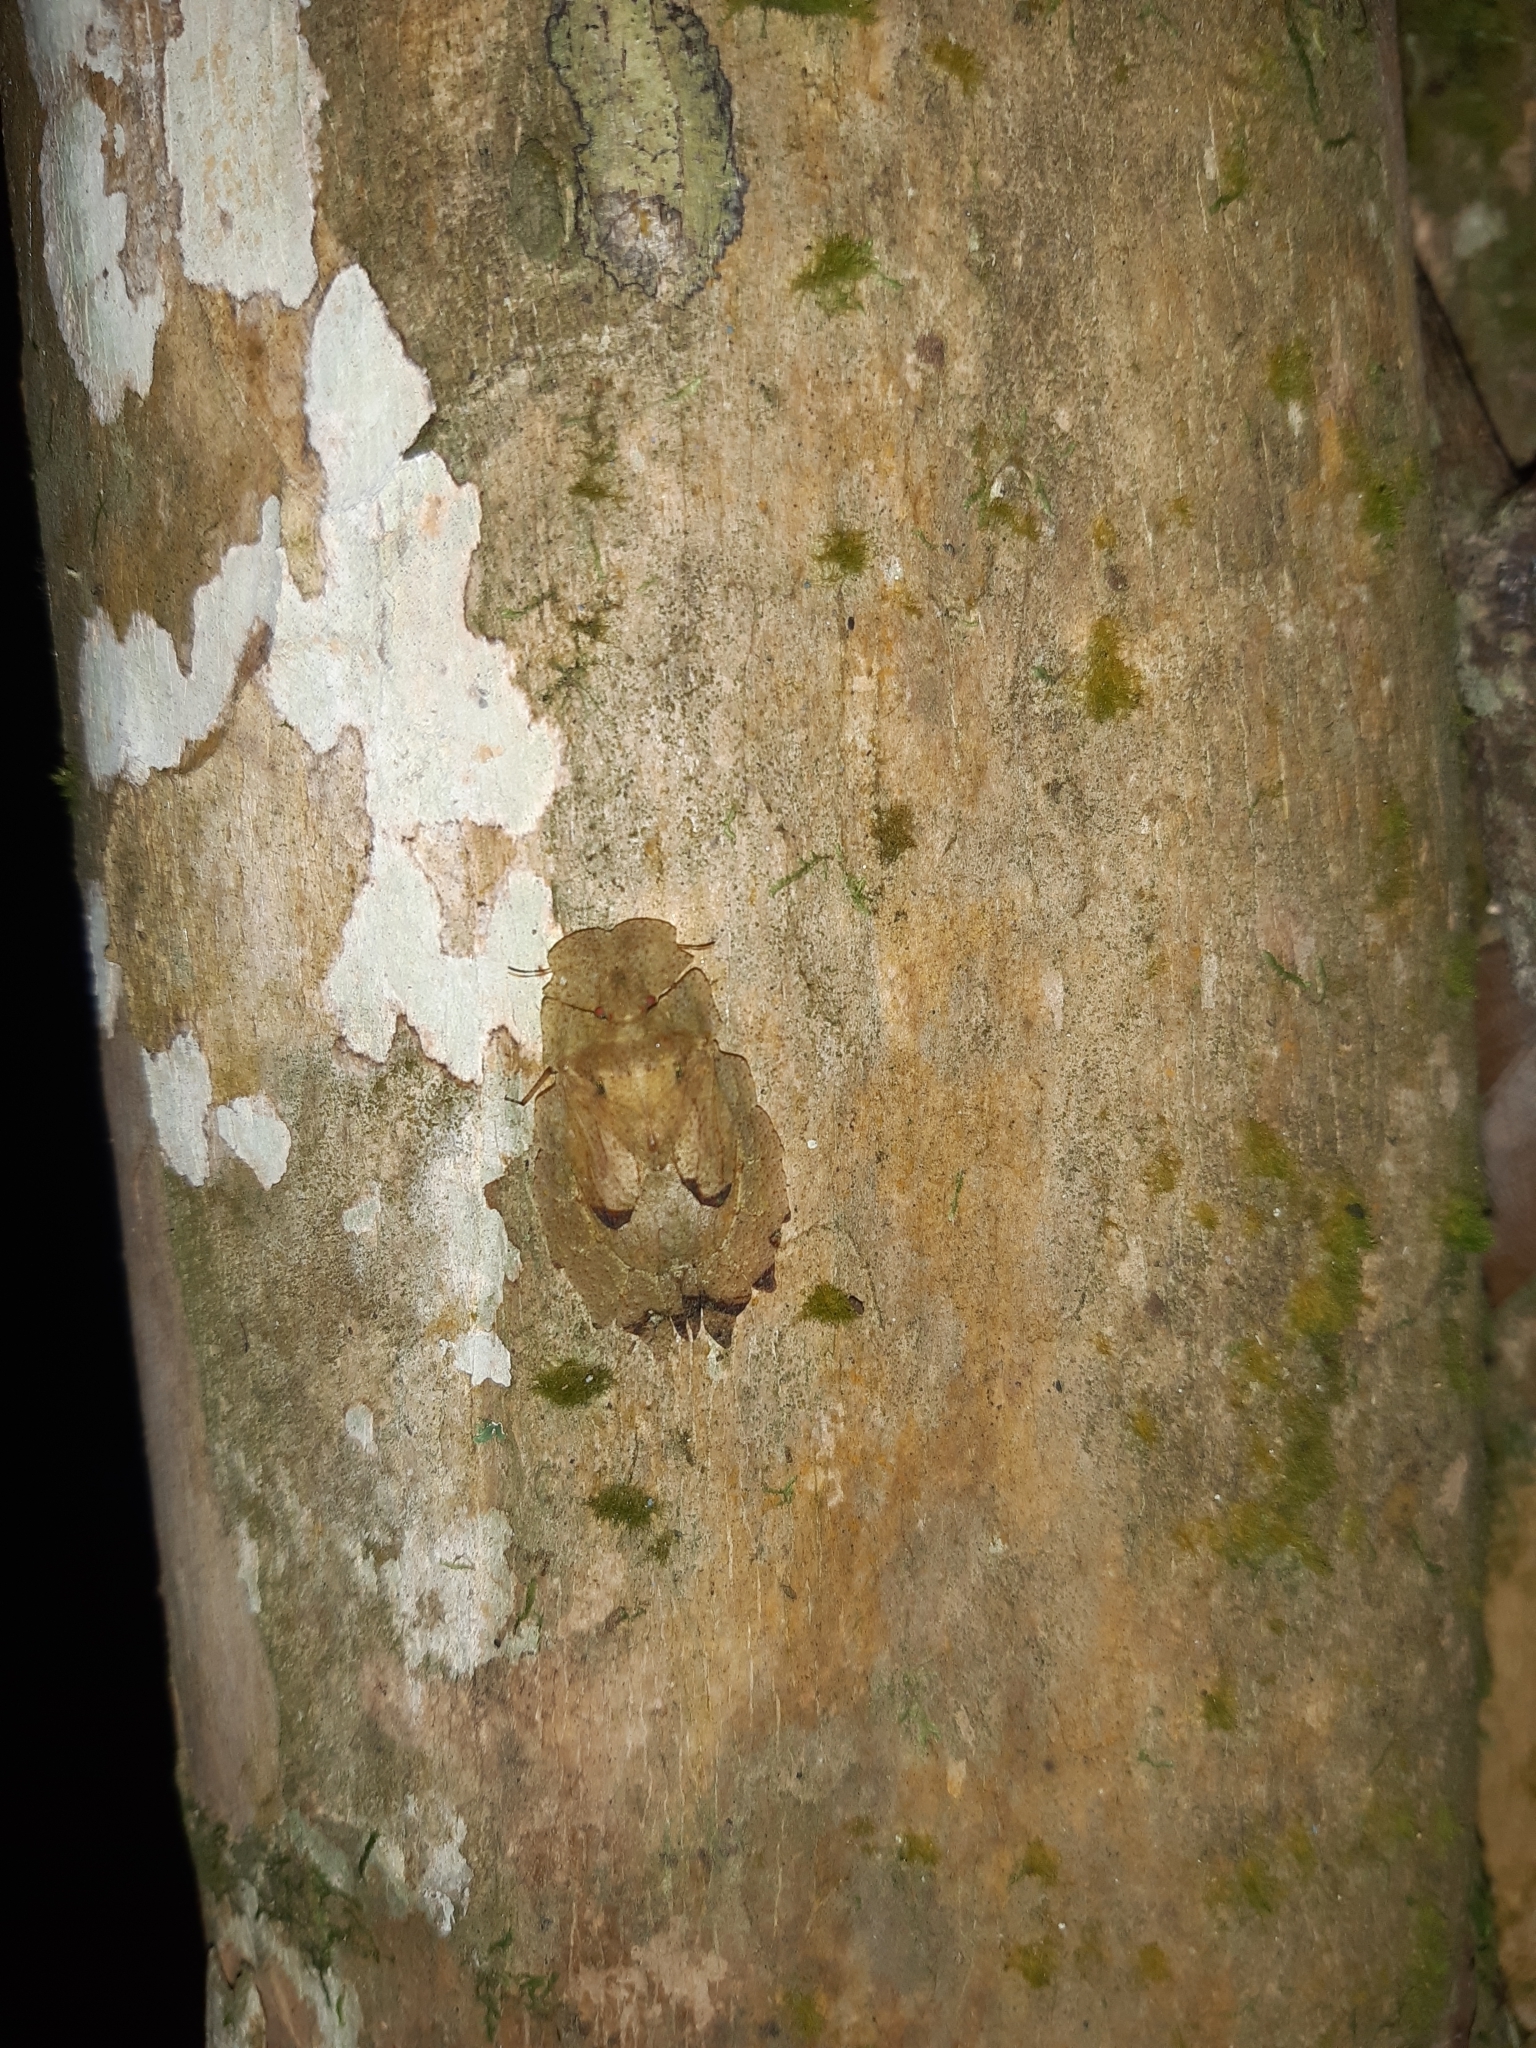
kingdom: Animalia
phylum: Arthropoda
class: Insecta
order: Hemiptera
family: Phleides
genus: Phloea
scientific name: Phloea
